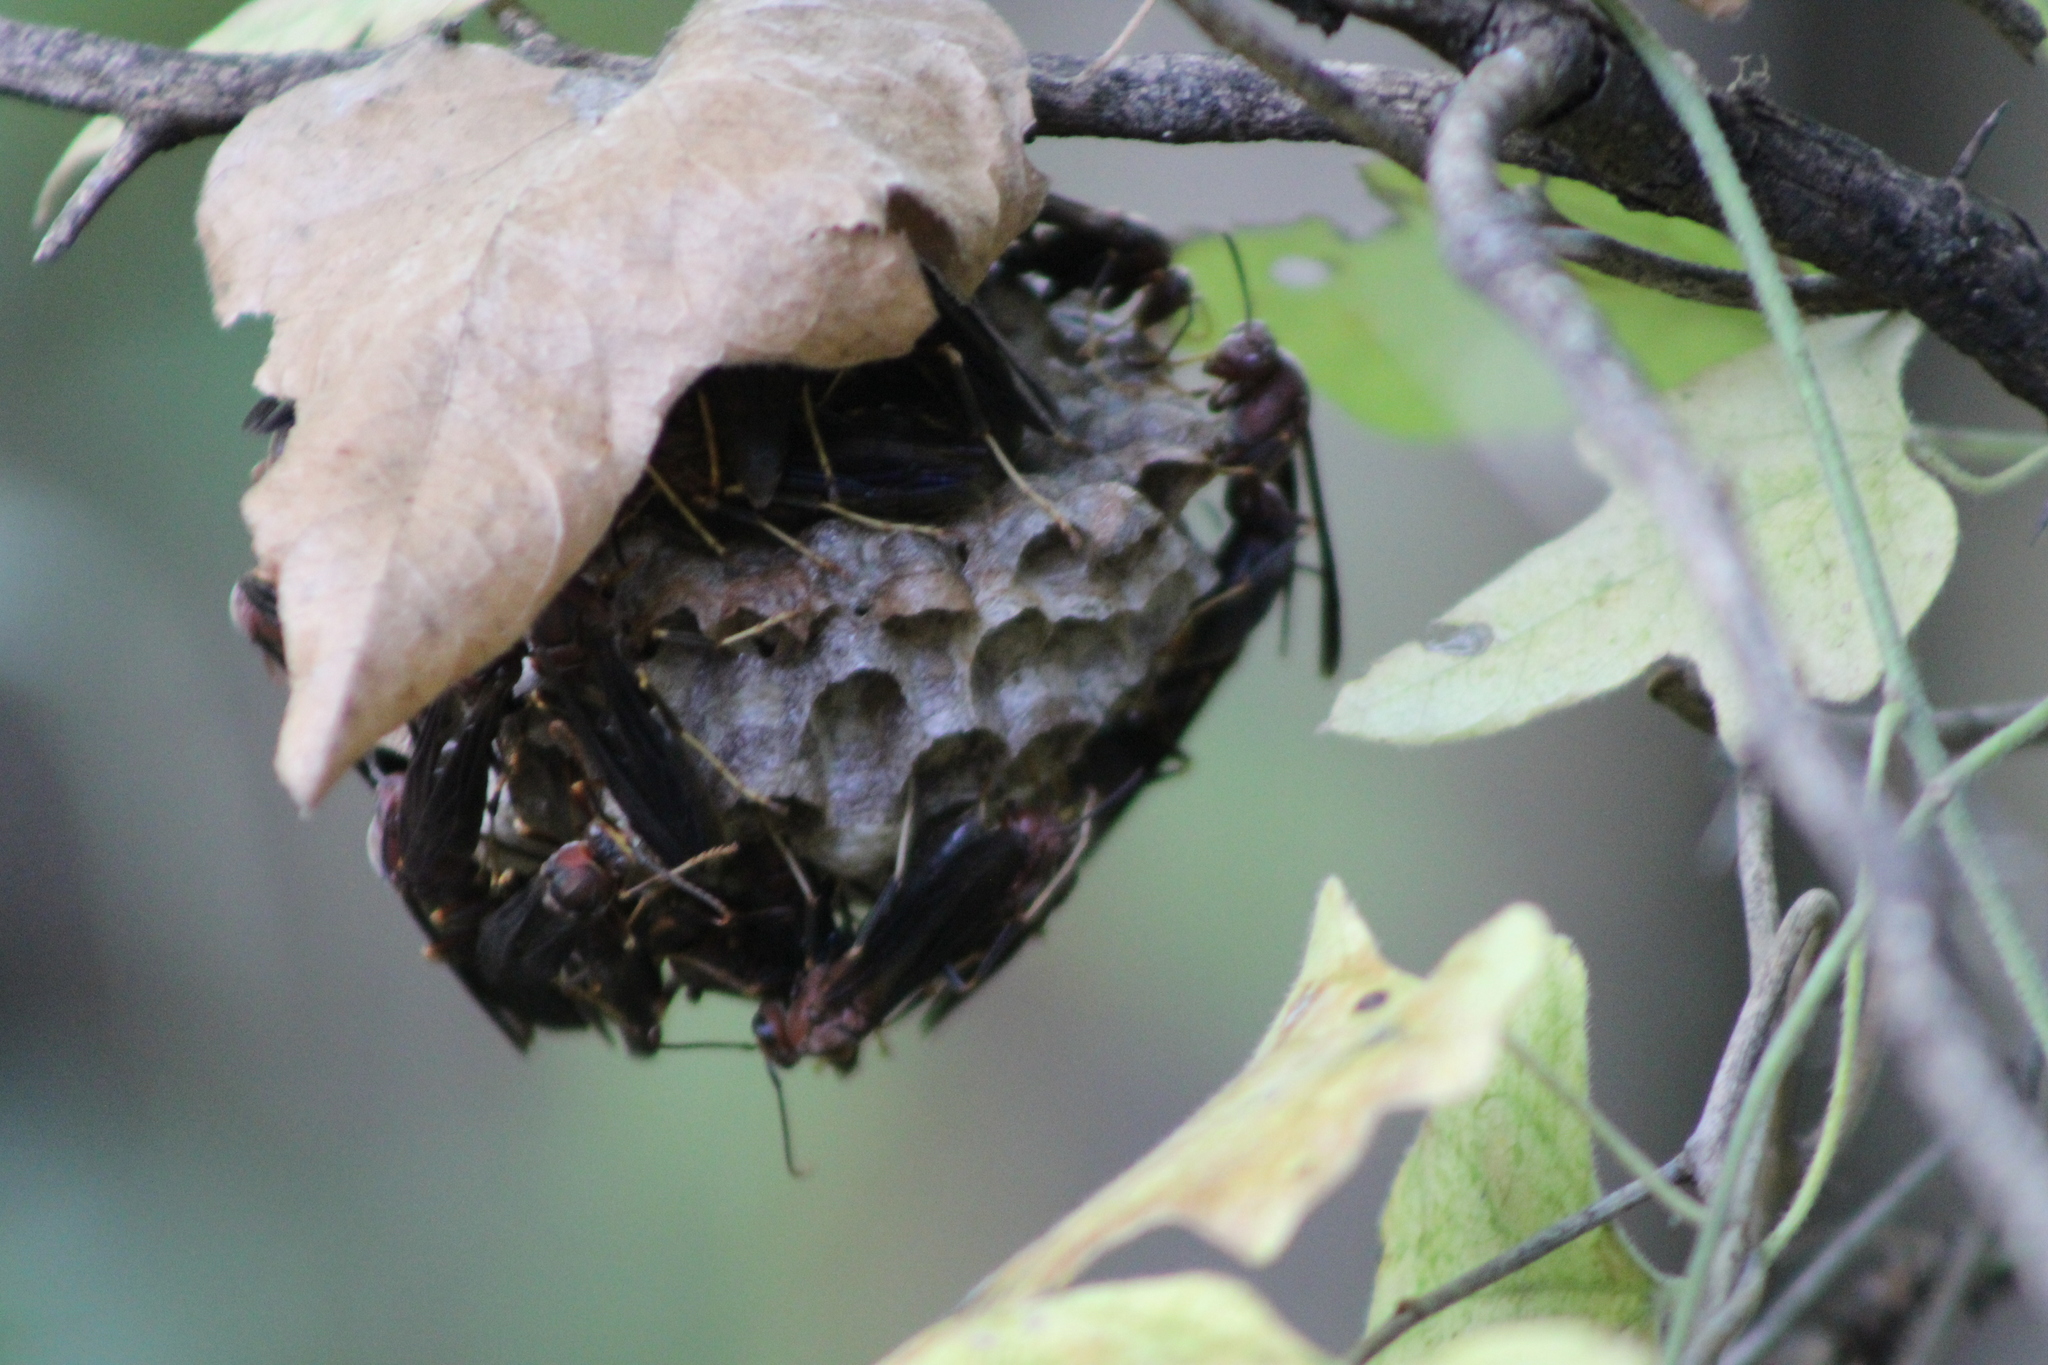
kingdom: Animalia
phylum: Arthropoda
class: Insecta
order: Hymenoptera
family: Eumenidae
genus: Polistes
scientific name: Polistes metricus
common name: Metric paper wasp
